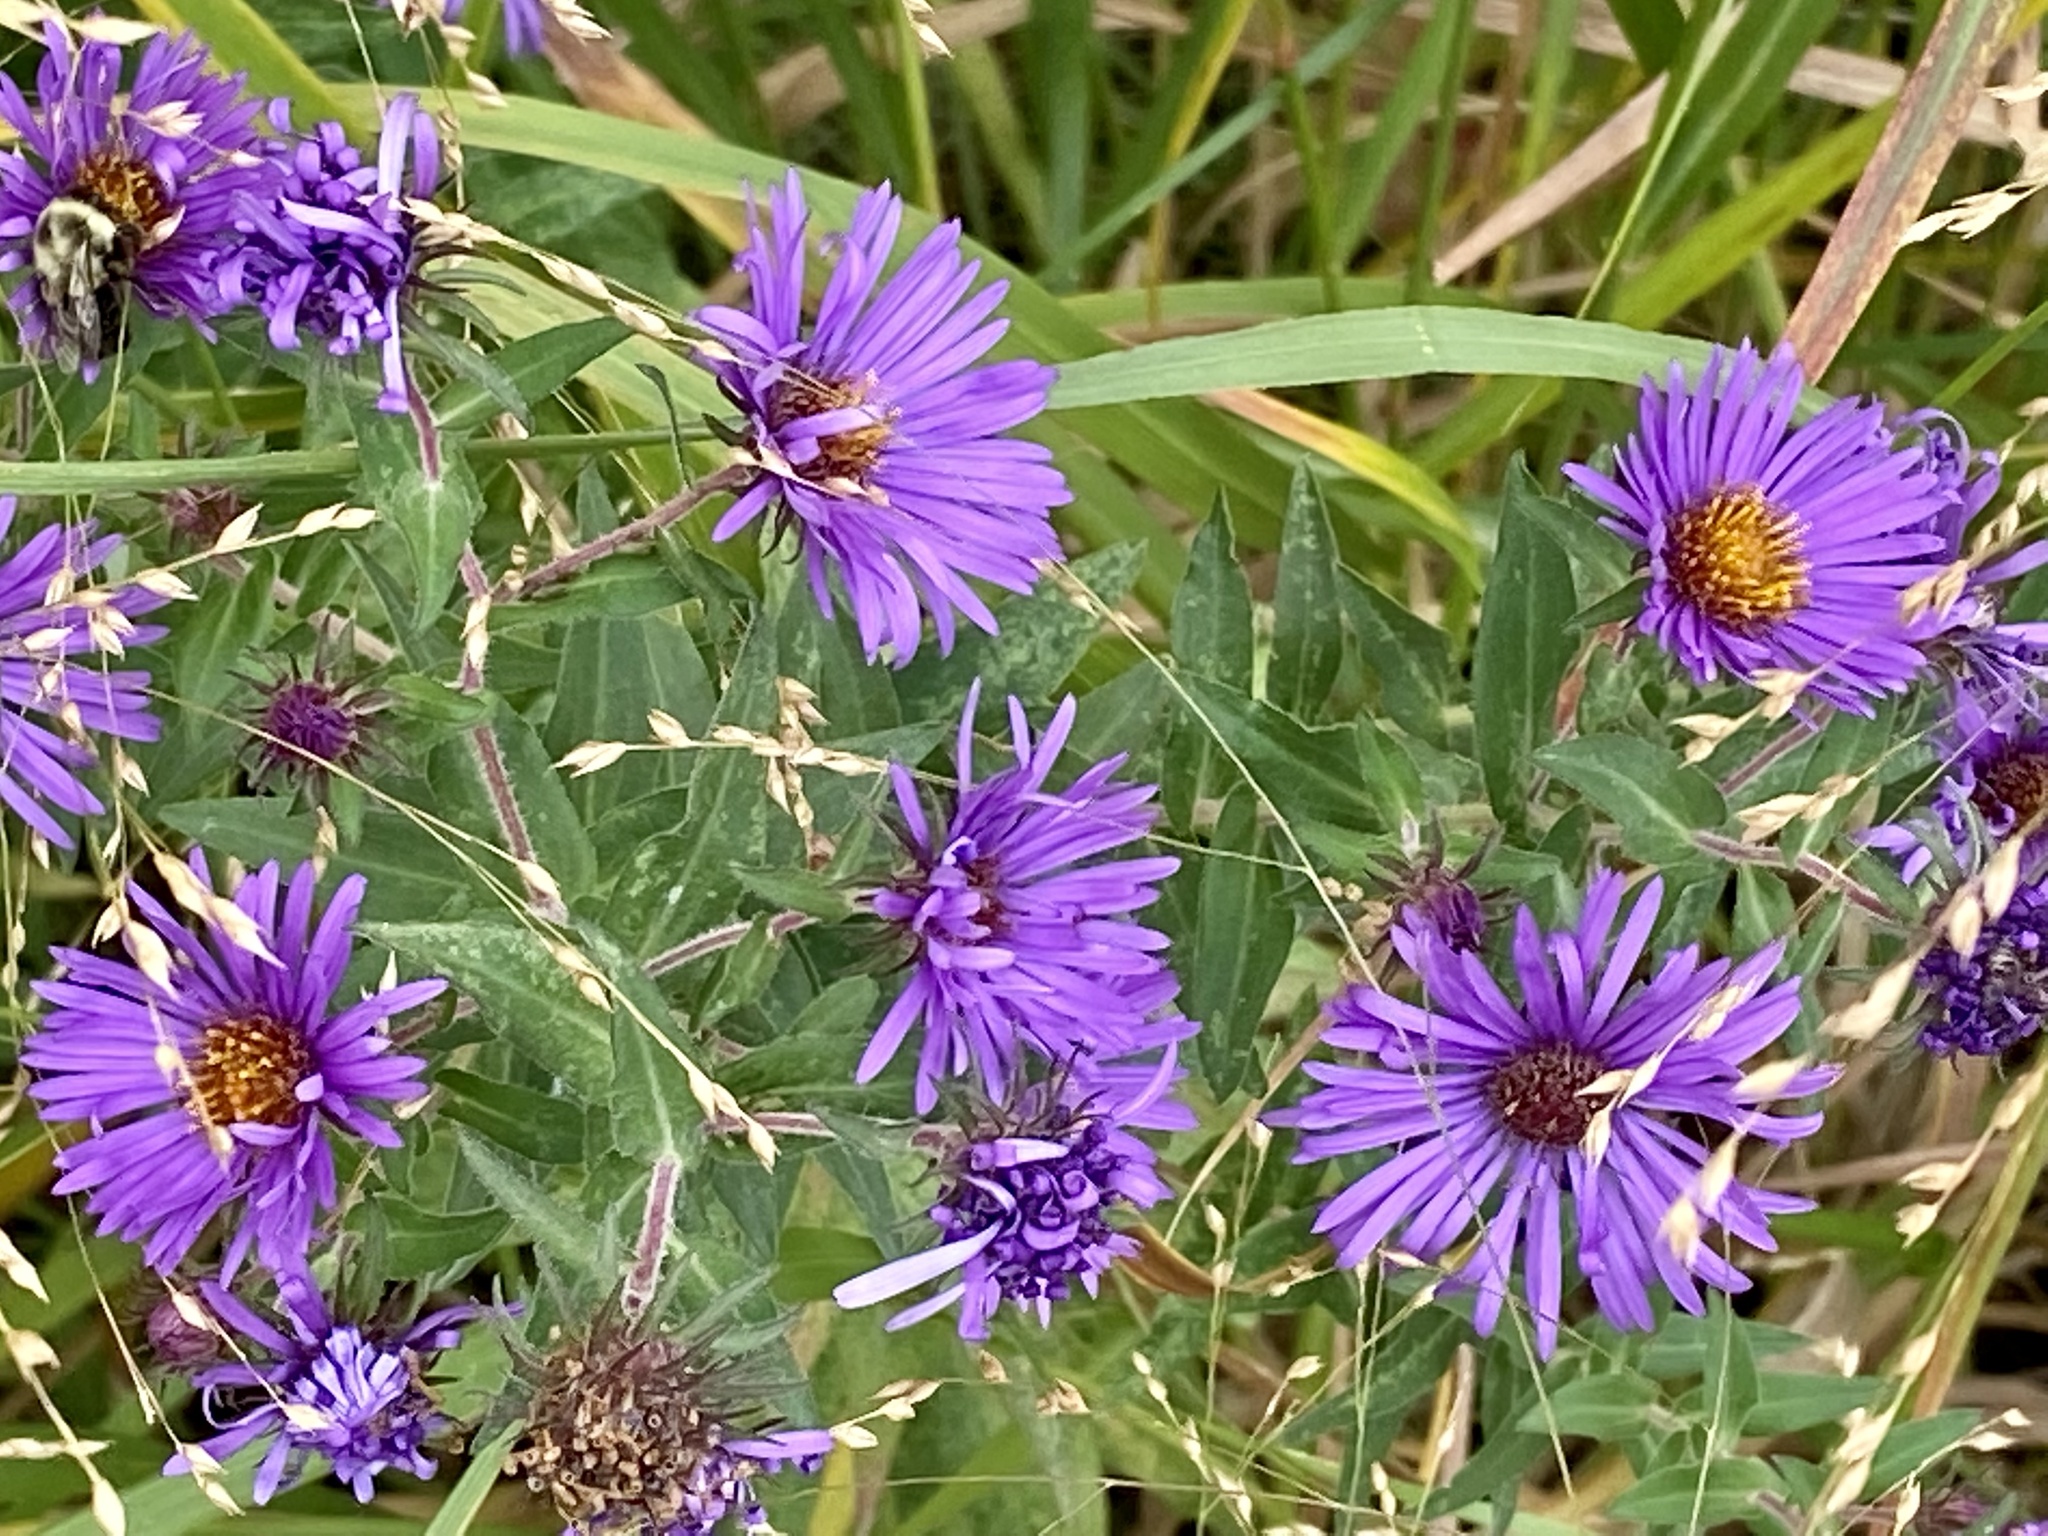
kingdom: Plantae
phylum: Tracheophyta
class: Magnoliopsida
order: Asterales
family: Asteraceae
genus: Symphyotrichum
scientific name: Symphyotrichum novae-angliae
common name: Michaelmas daisy
